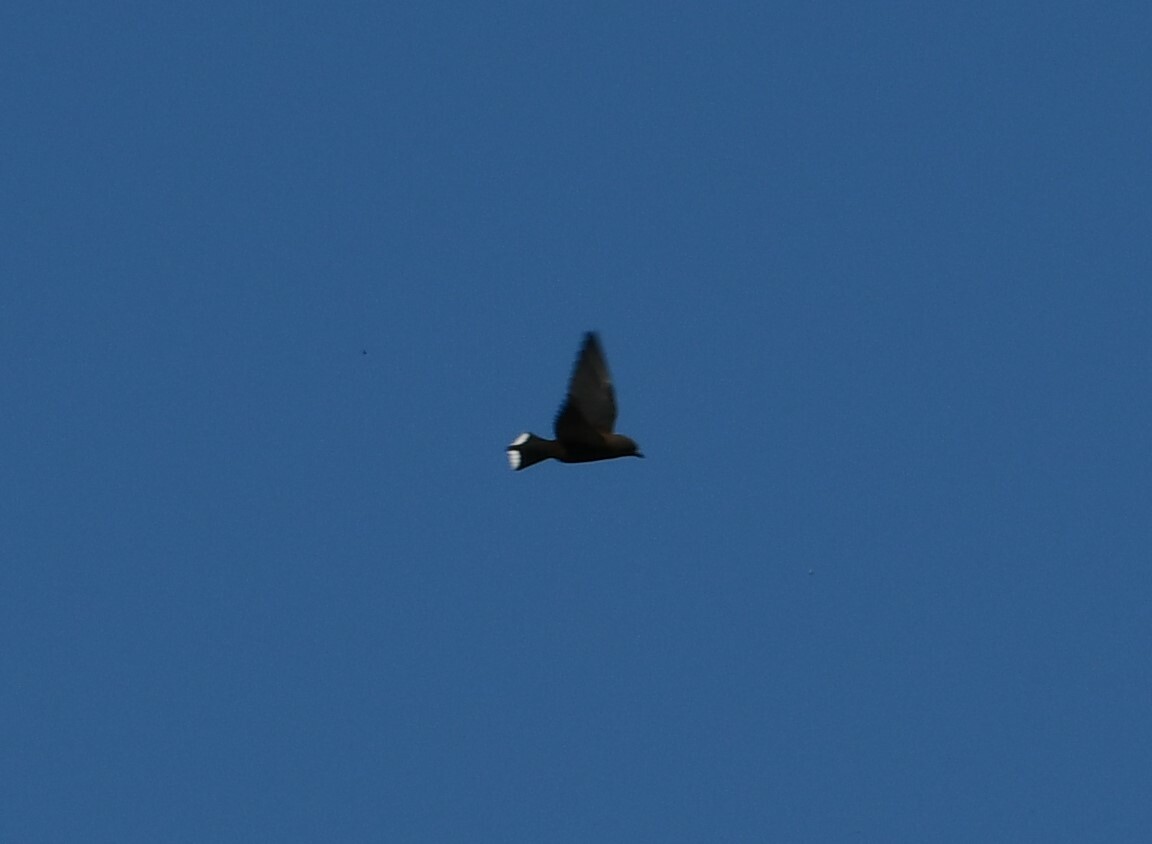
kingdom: Animalia
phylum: Chordata
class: Aves
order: Passeriformes
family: Artamidae
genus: Artamus
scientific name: Artamus cyanopterus
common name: Dusky woodswallow
